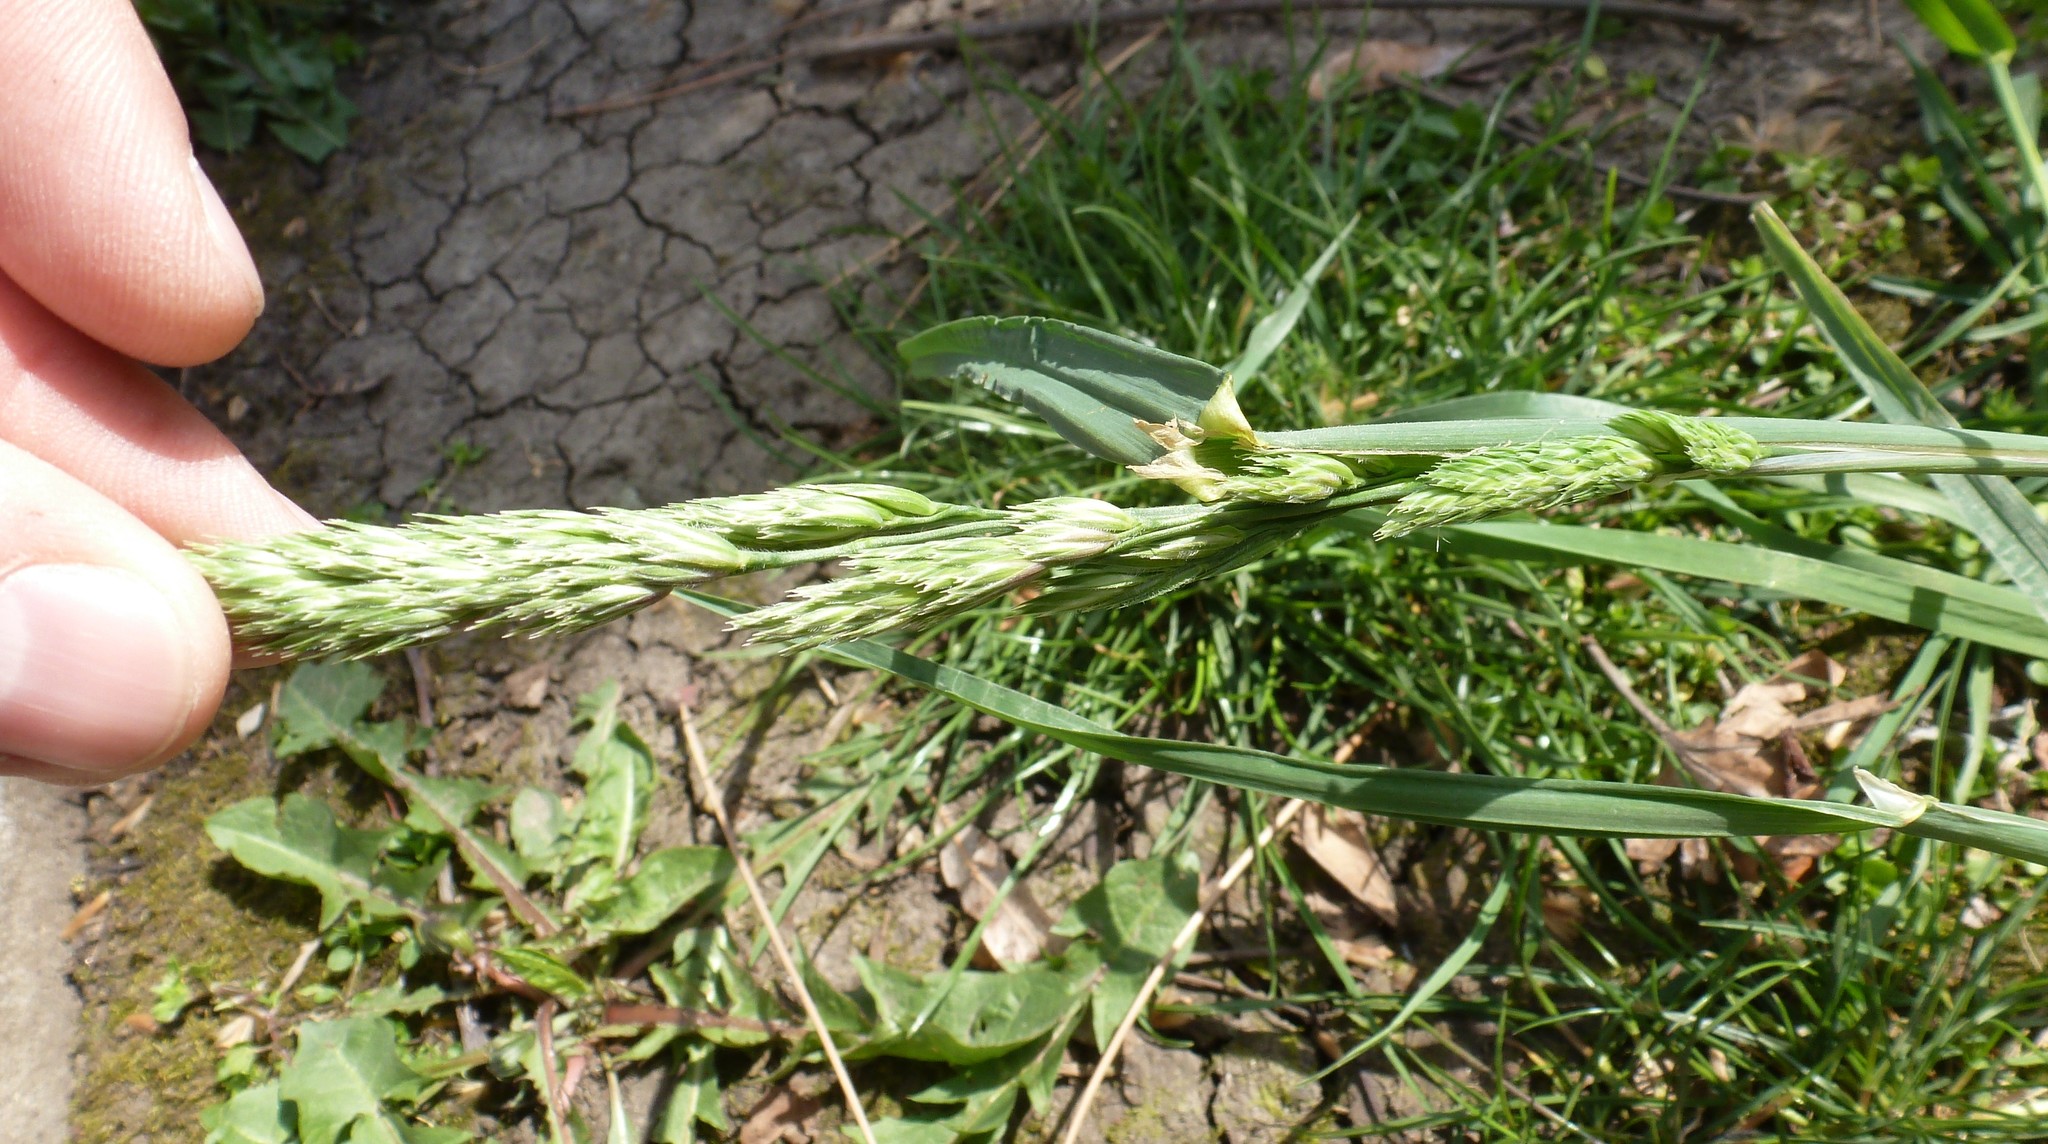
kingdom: Plantae
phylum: Tracheophyta
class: Liliopsida
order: Poales
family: Poaceae
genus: Dactylis
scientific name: Dactylis glomerata
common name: Orchardgrass
